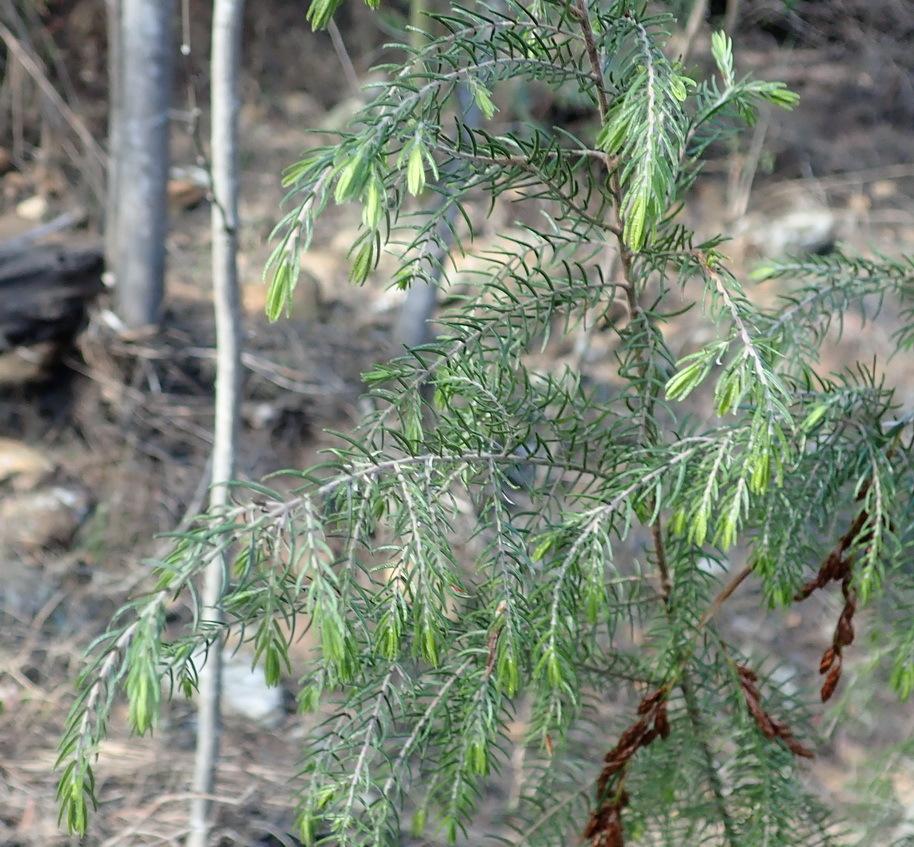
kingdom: Plantae
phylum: Tracheophyta
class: Magnoliopsida
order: Malvales
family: Thymelaeaceae
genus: Passerina
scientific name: Passerina falcifolia
